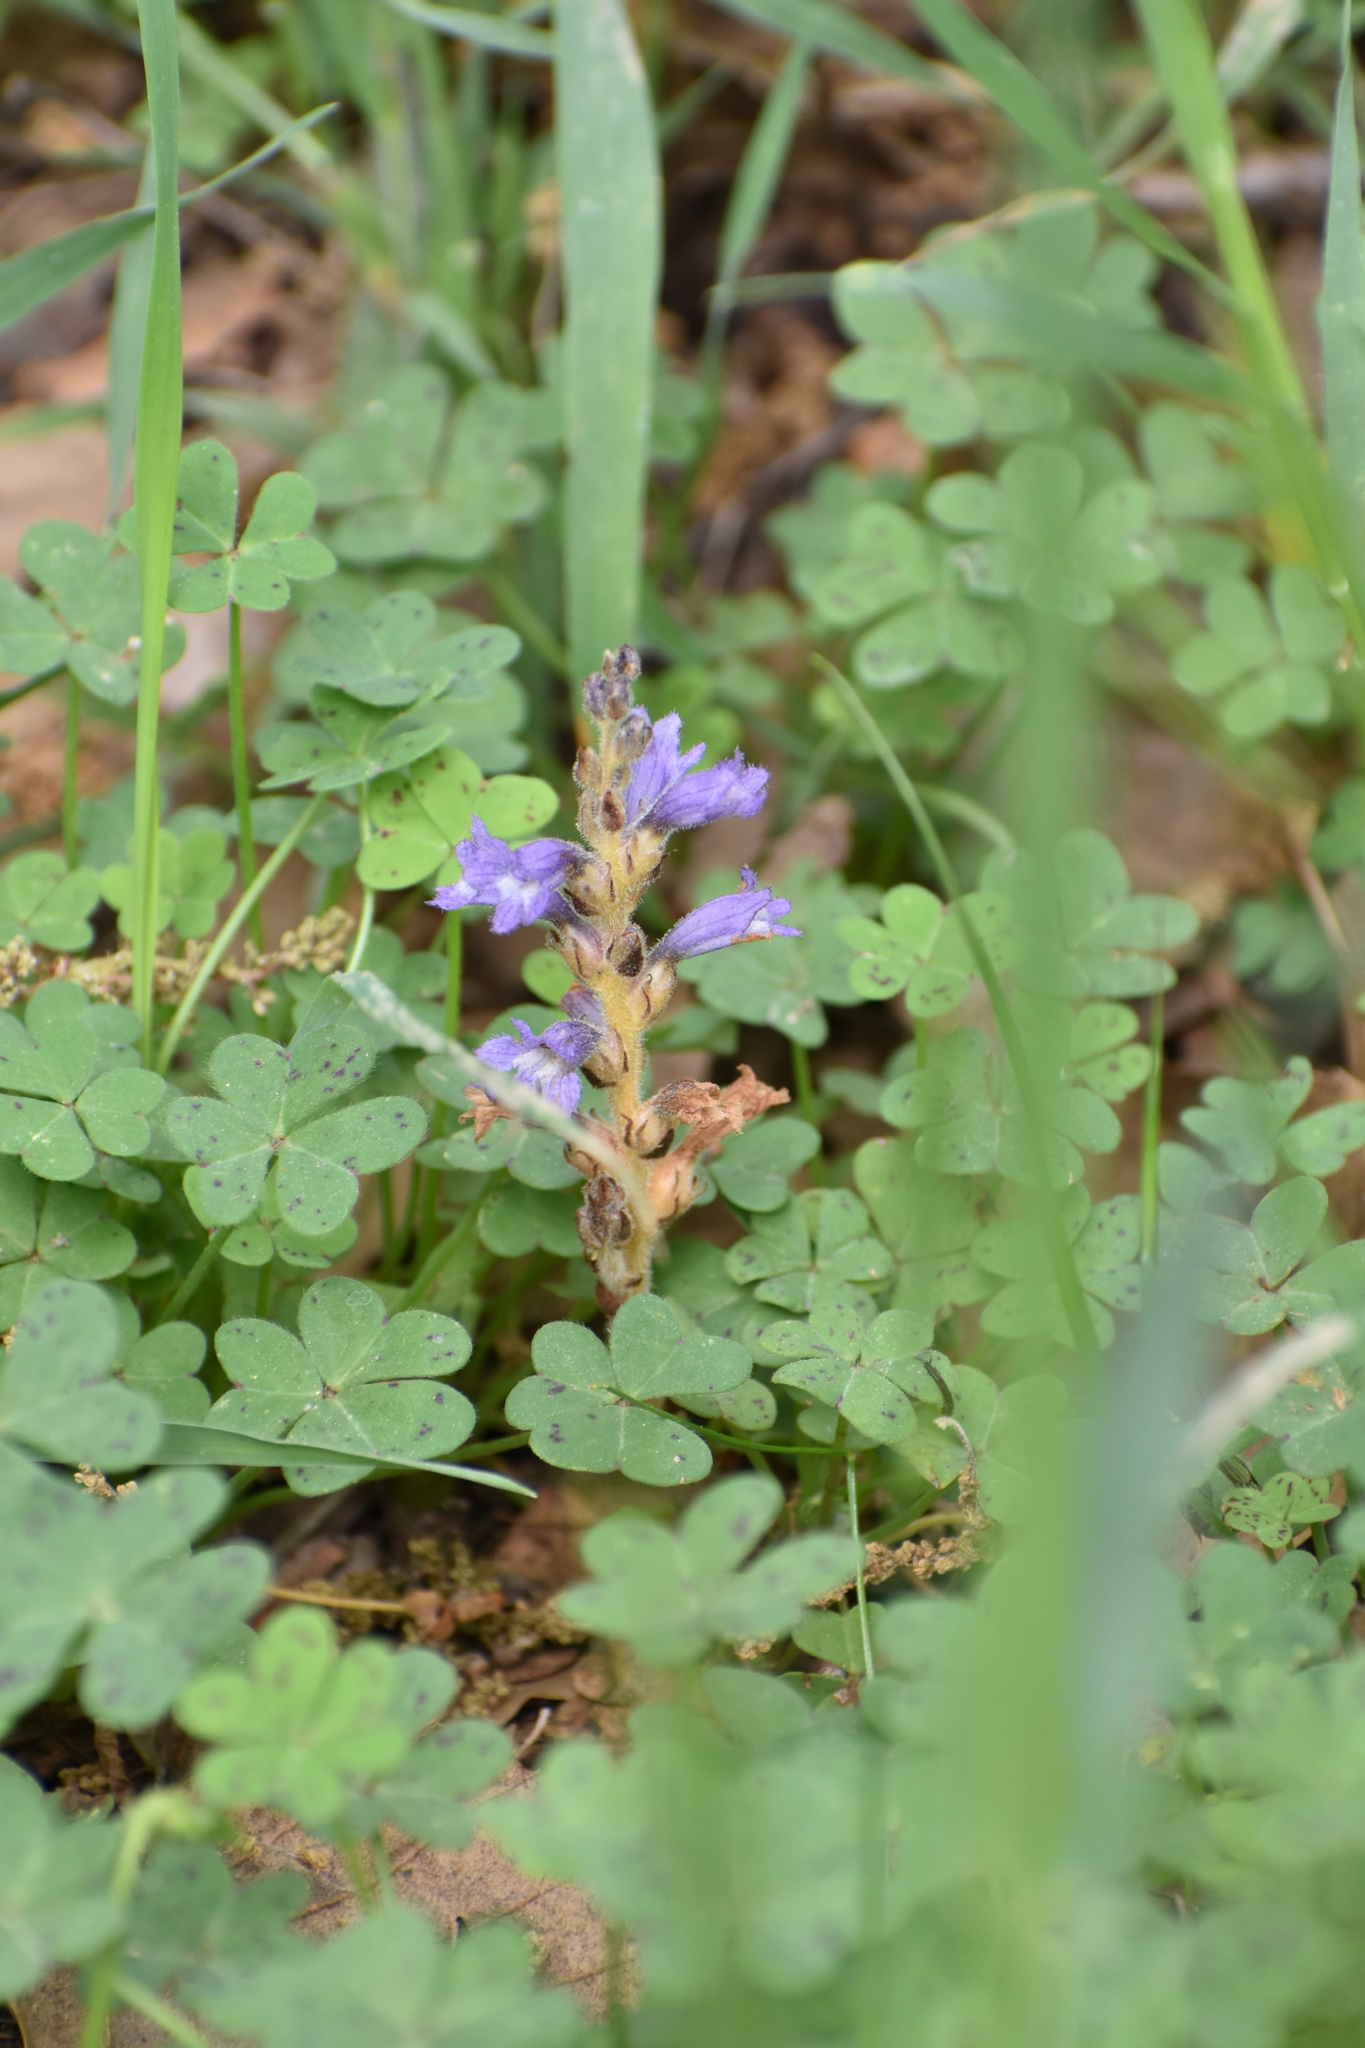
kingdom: Plantae
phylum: Tracheophyta
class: Magnoliopsida
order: Lamiales
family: Orobanchaceae
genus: Phelipanche
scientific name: Phelipanche mutelii
